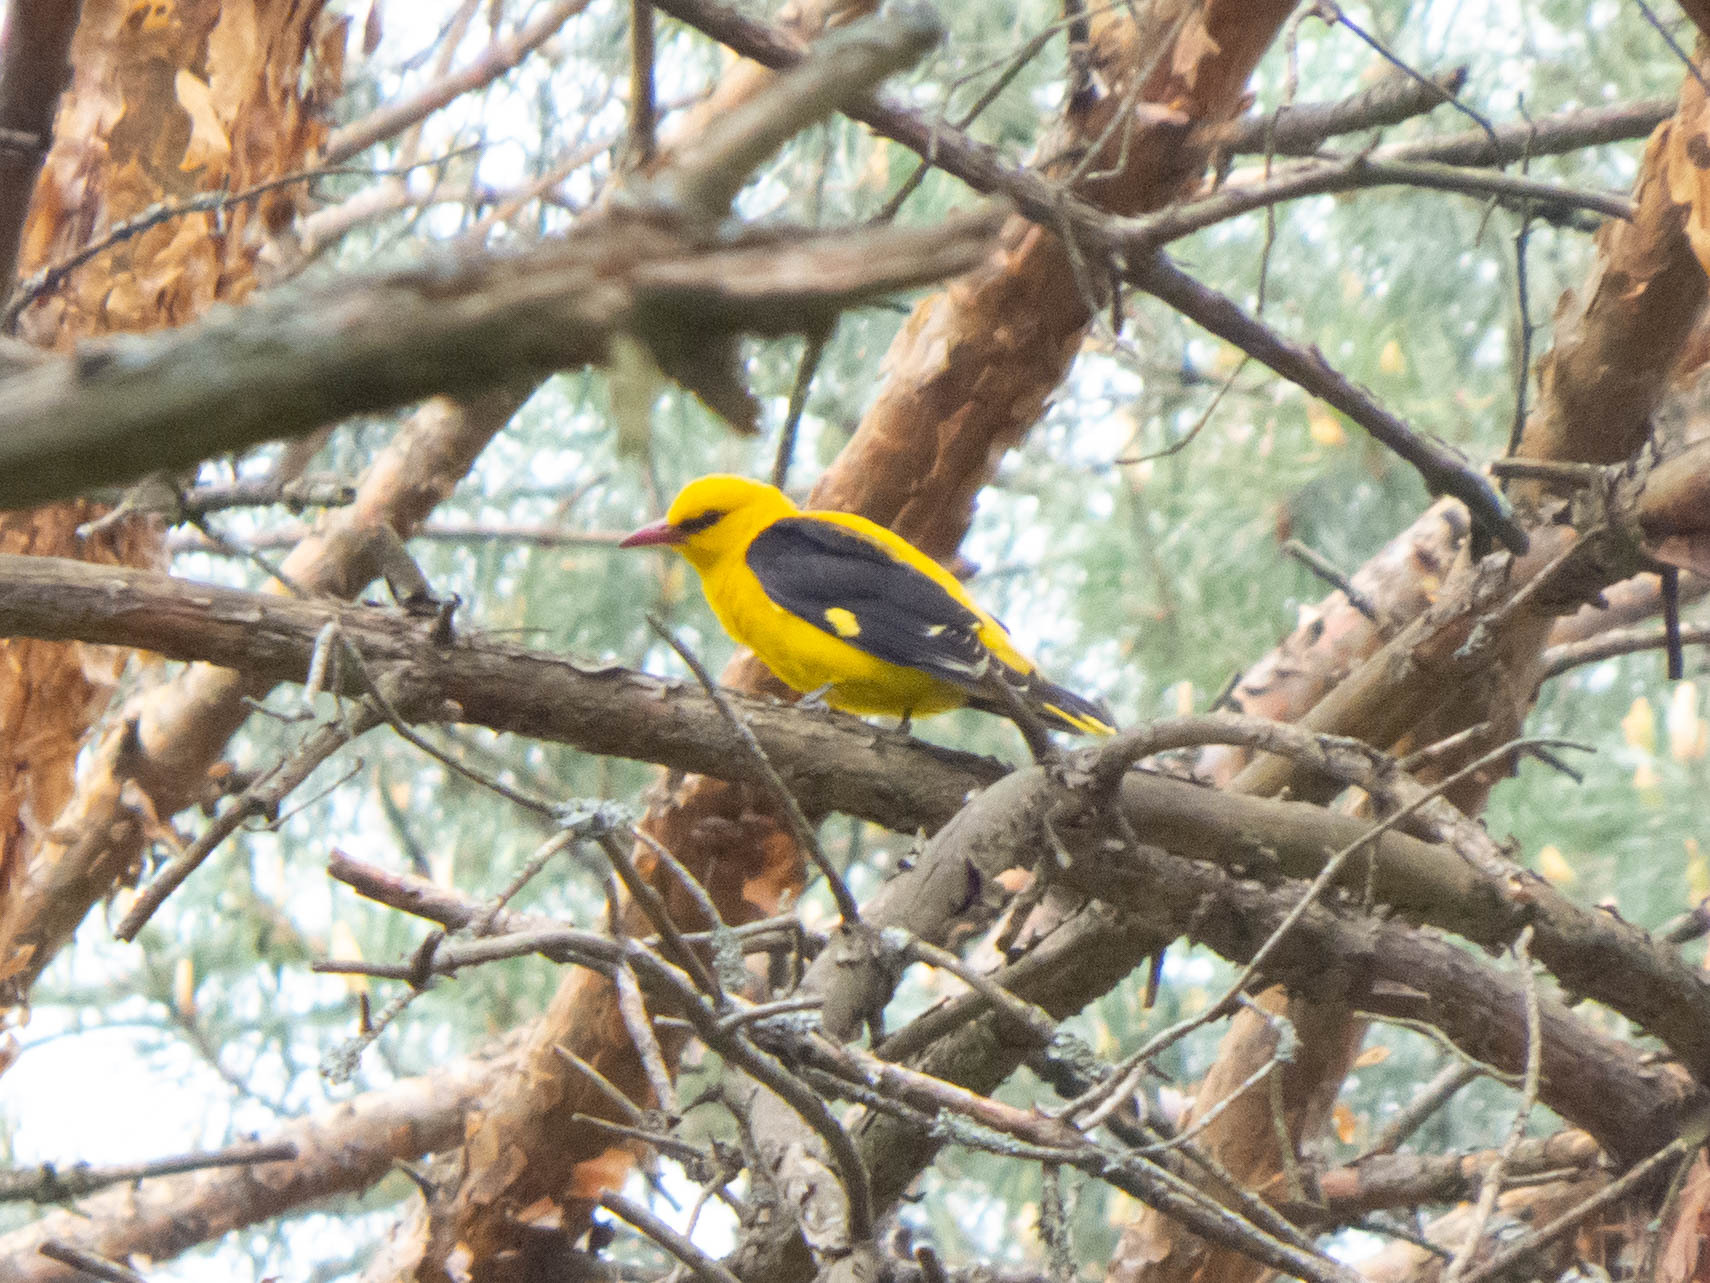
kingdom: Animalia
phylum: Chordata
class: Aves
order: Passeriformes
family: Oriolidae
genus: Oriolus
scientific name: Oriolus oriolus
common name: Eurasian golden oriole
